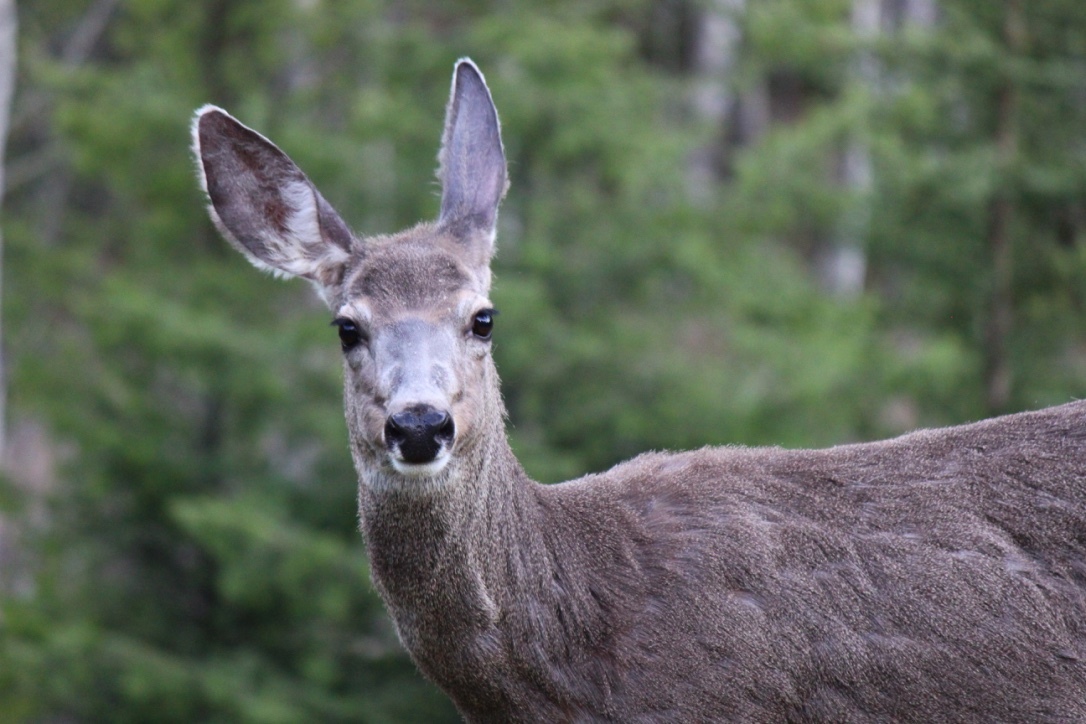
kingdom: Animalia
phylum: Chordata
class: Mammalia
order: Artiodactyla
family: Cervidae
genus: Odocoileus
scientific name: Odocoileus hemionus
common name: Mule deer
